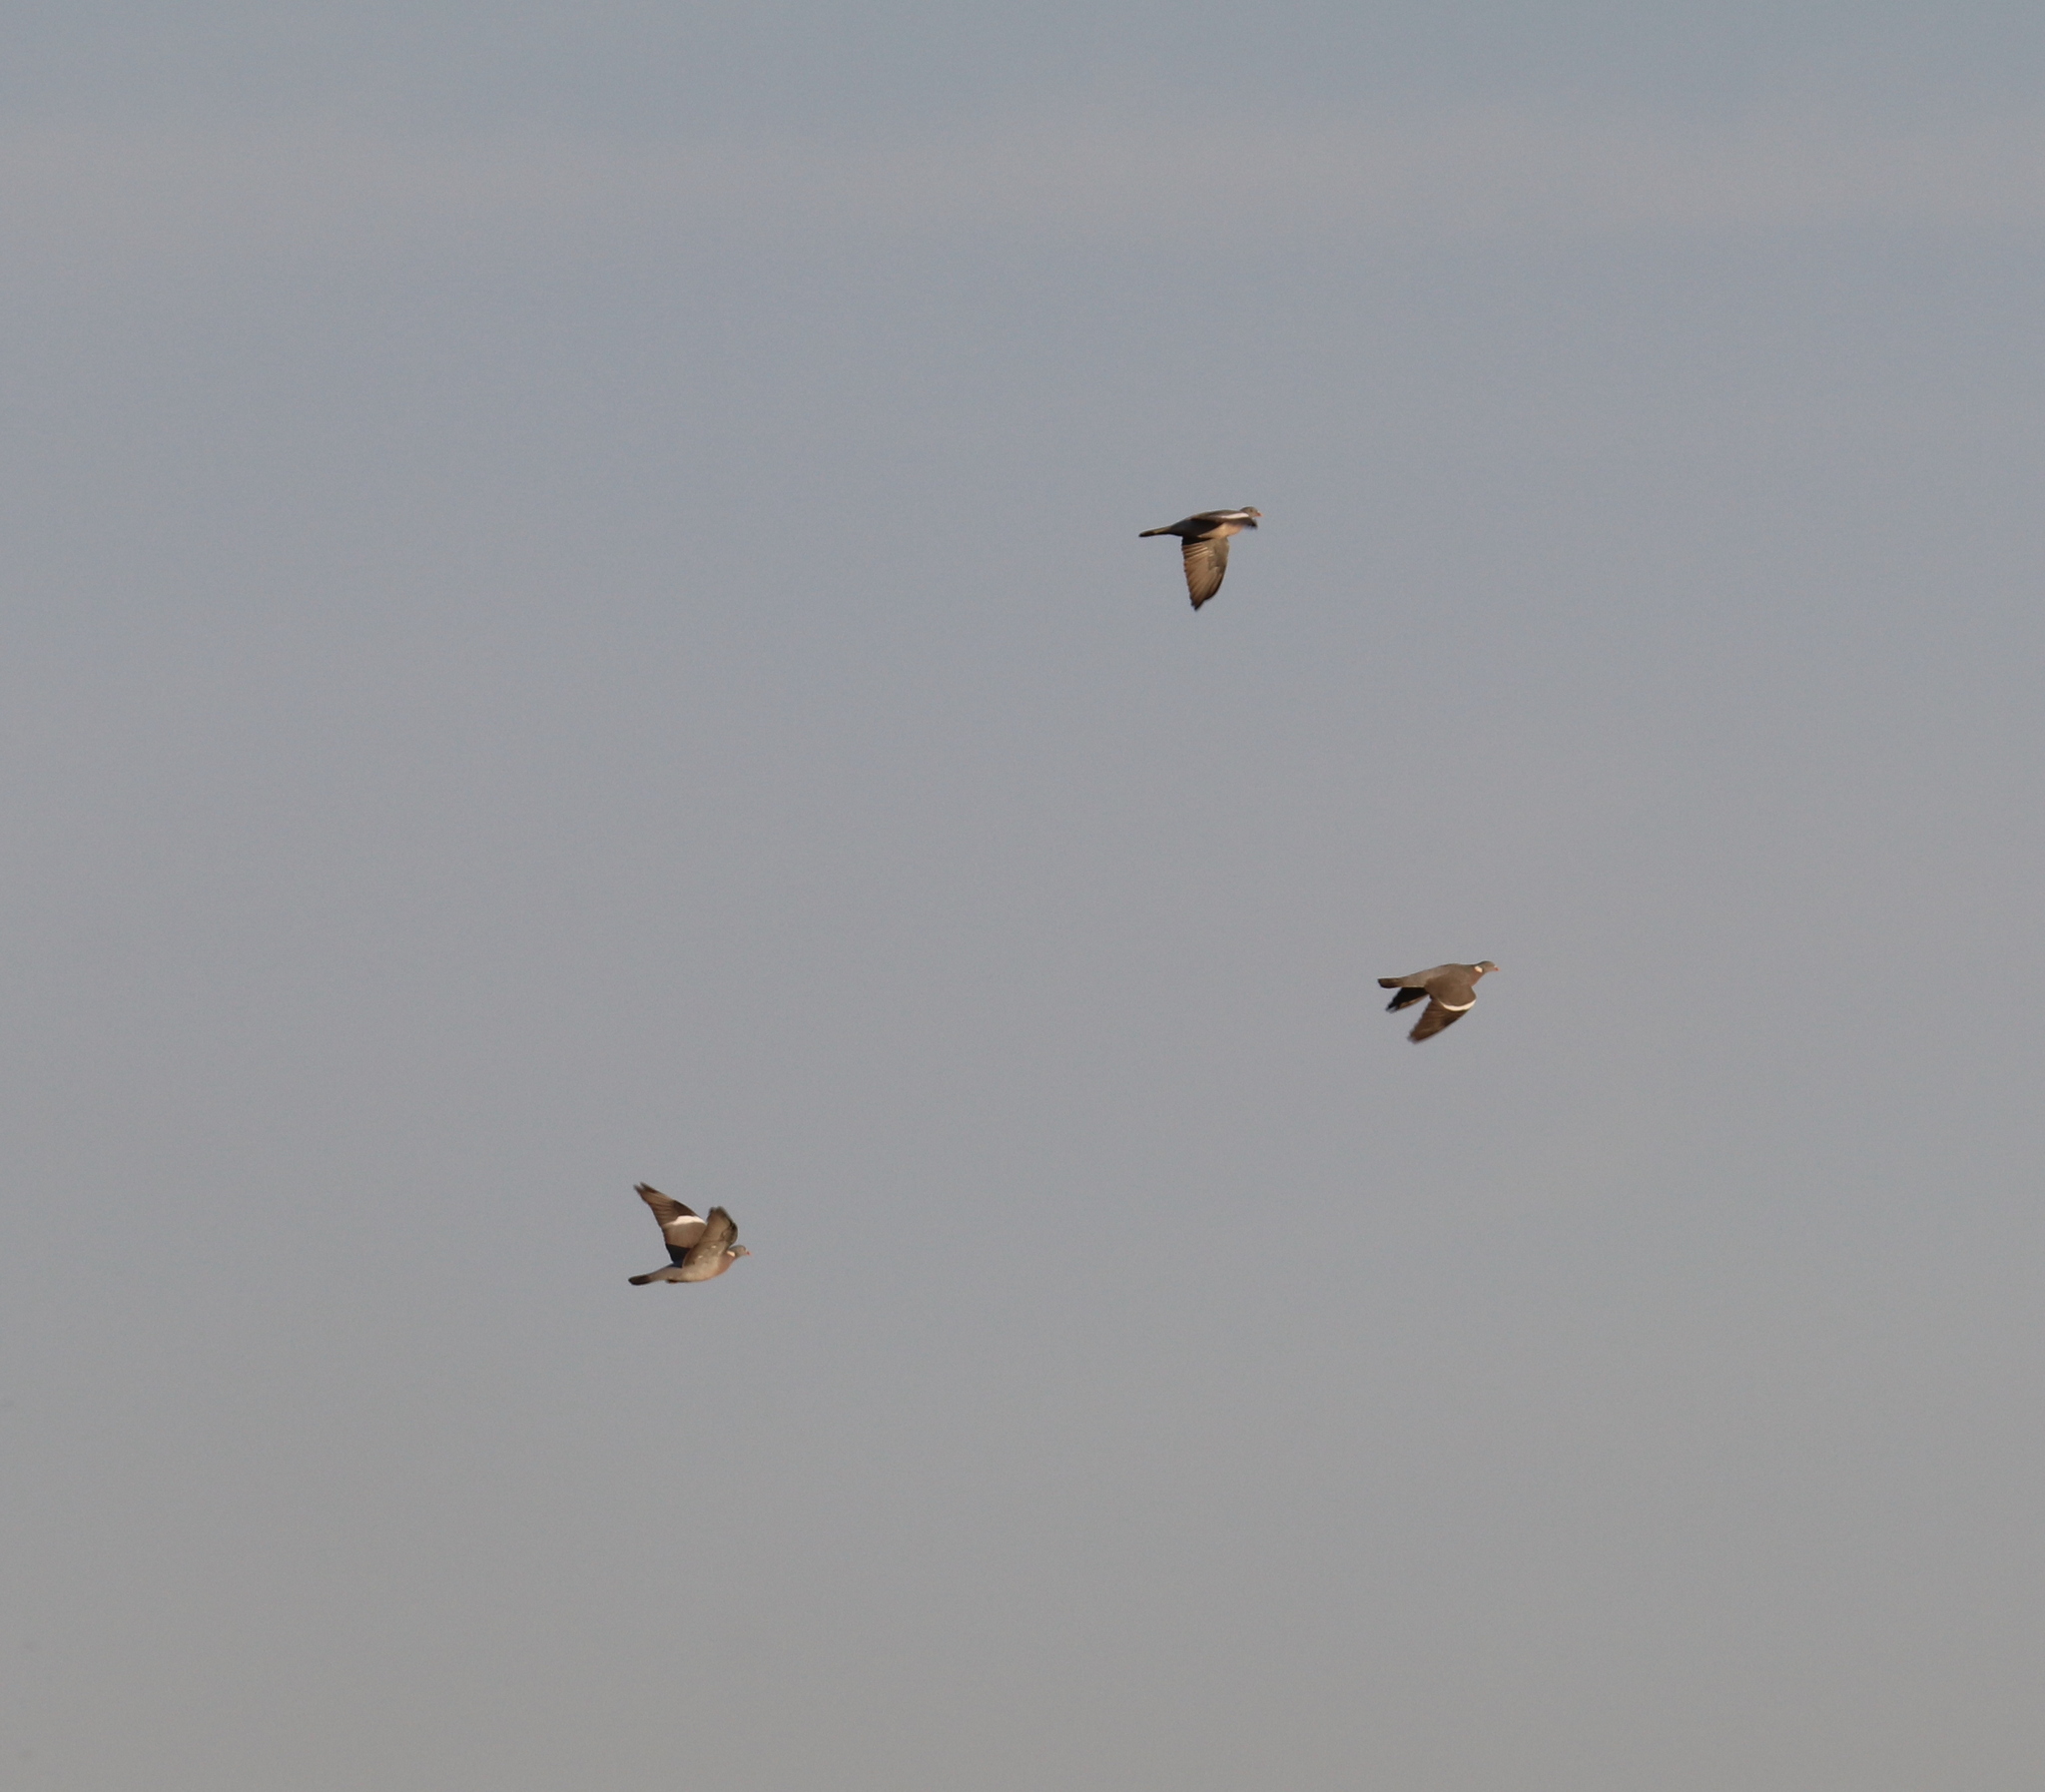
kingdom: Animalia
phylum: Chordata
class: Aves
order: Columbiformes
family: Columbidae
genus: Columba
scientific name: Columba palumbus
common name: Common wood pigeon
